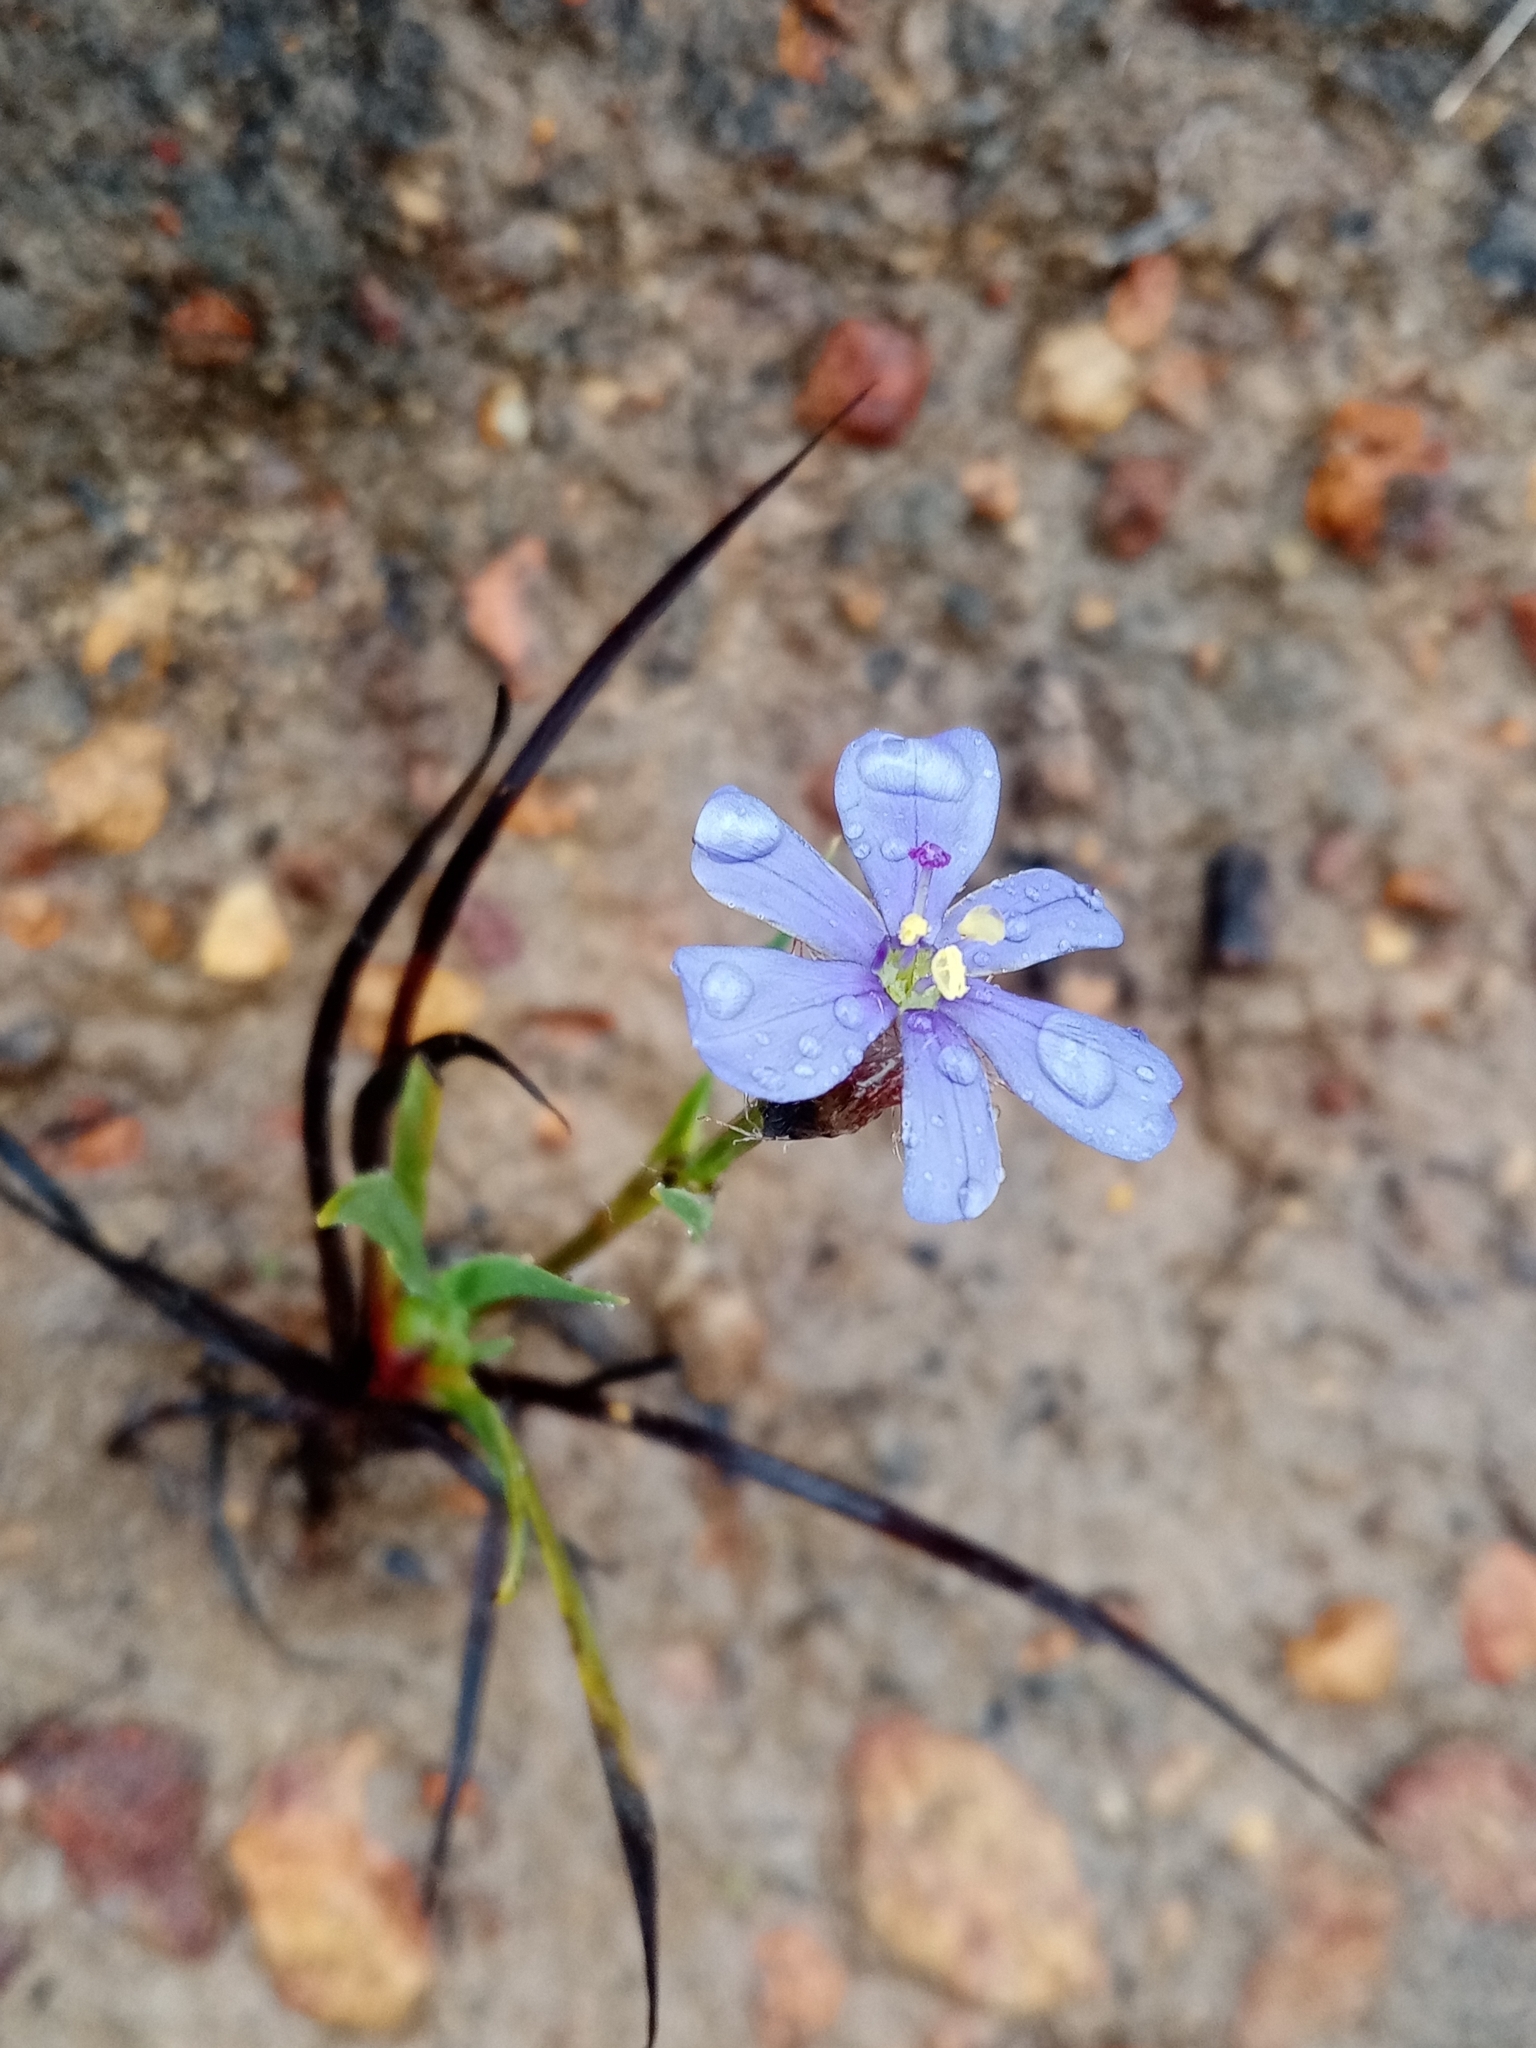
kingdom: Plantae
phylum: Tracheophyta
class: Liliopsida
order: Asparagales
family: Iridaceae
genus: Aristea
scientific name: Aristea africana
